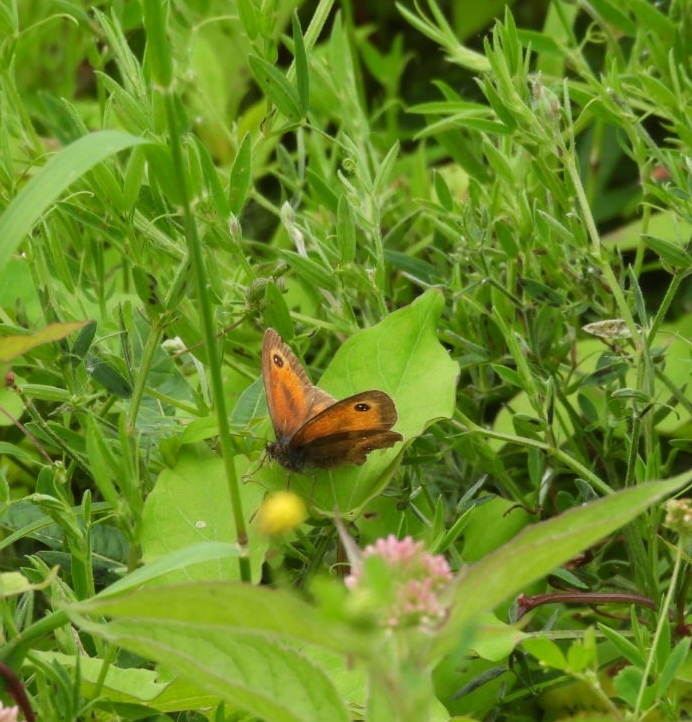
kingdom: Animalia
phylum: Arthropoda
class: Insecta
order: Lepidoptera
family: Nymphalidae
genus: Pyronia
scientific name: Pyronia tithonus
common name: Gatekeeper
